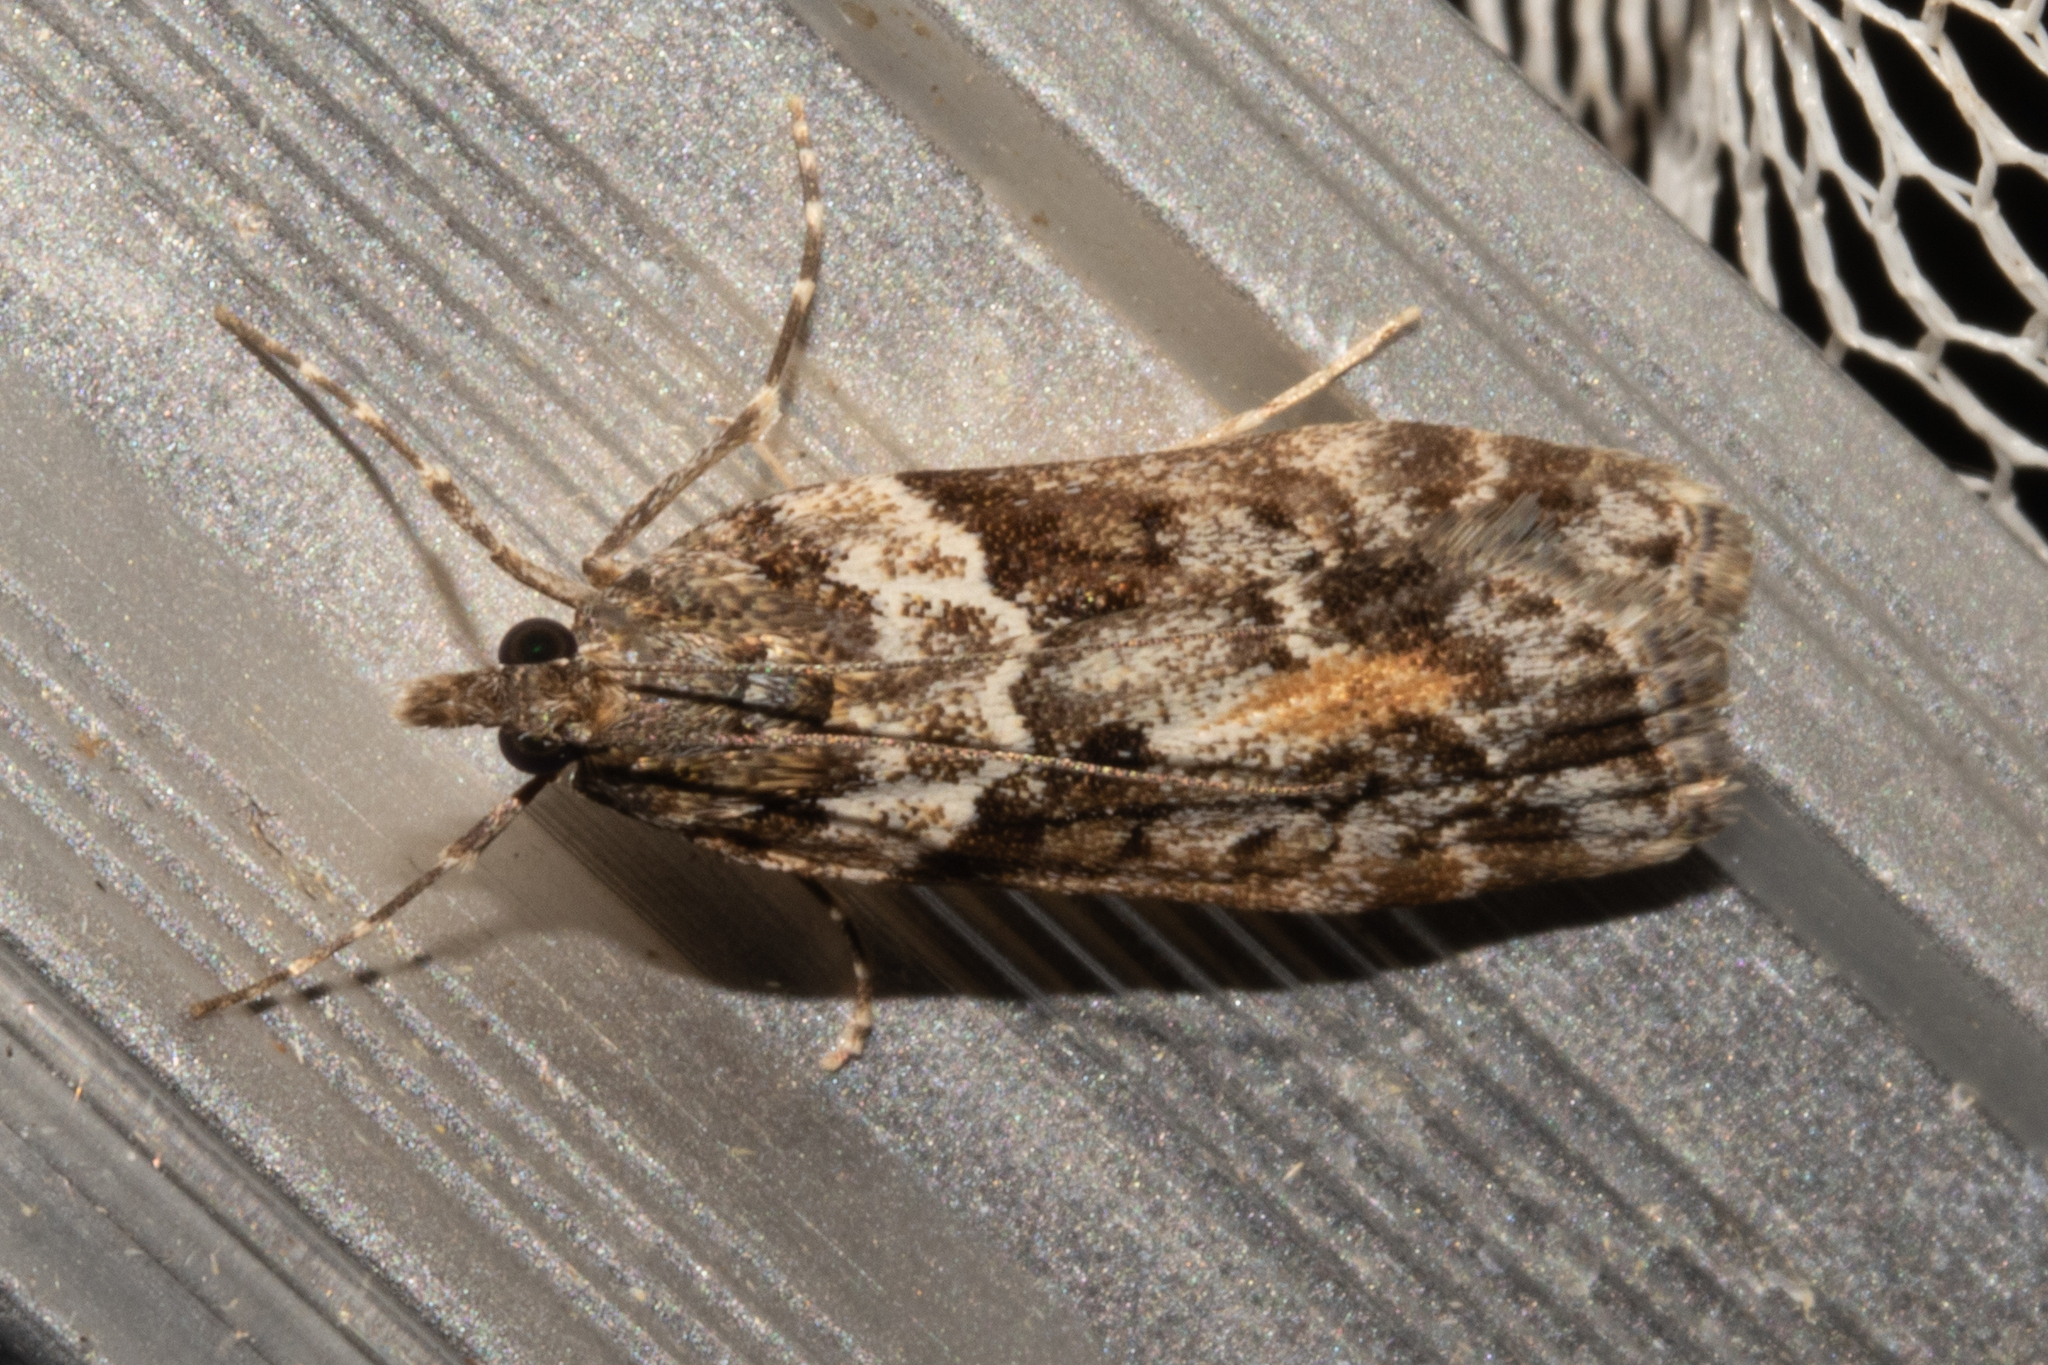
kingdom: Animalia
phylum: Arthropoda
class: Insecta
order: Lepidoptera
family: Crambidae
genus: Eudonia
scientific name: Eudonia submarginalis
